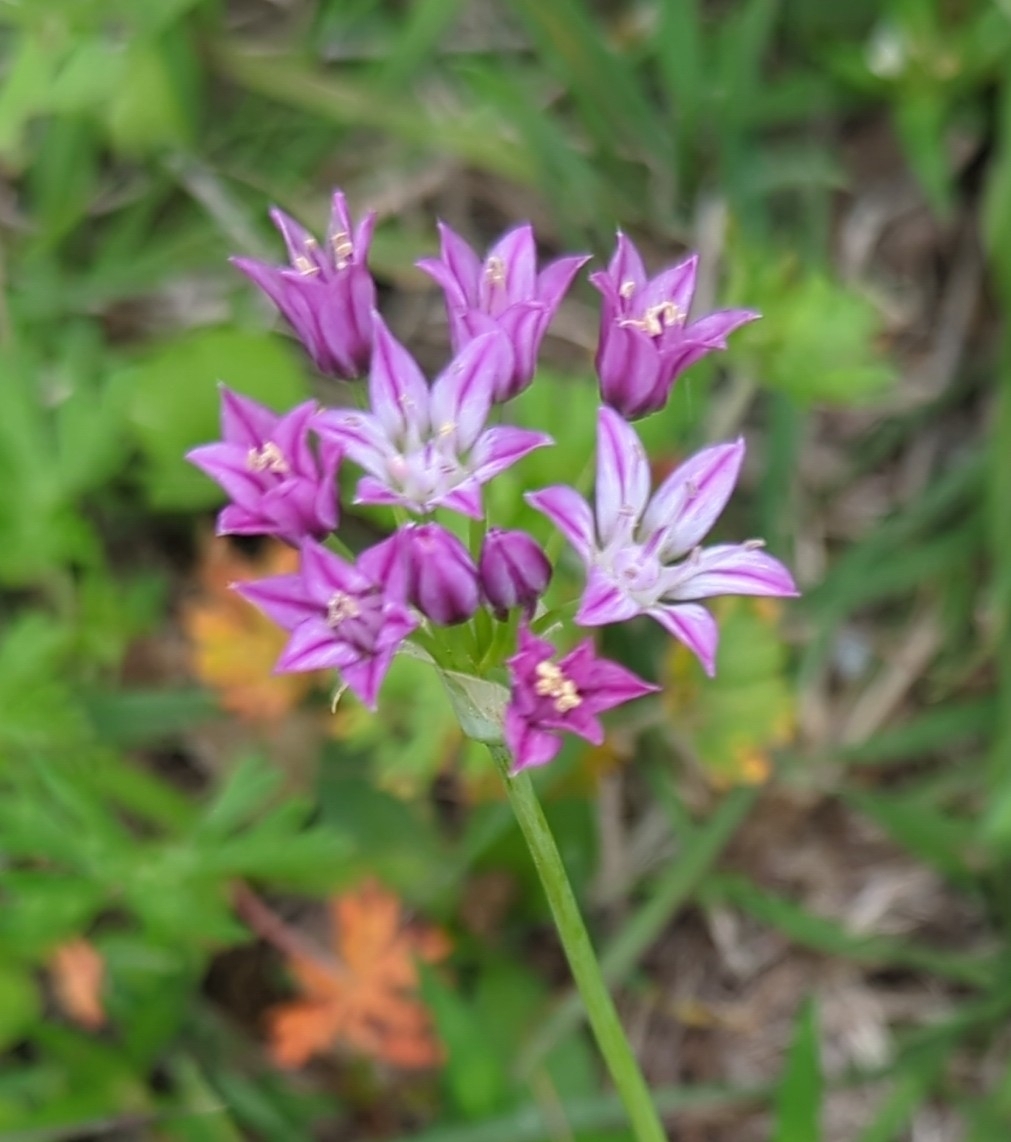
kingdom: Plantae
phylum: Tracheophyta
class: Liliopsida
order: Asparagales
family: Amaryllidaceae
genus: Allium
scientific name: Allium drummondii
